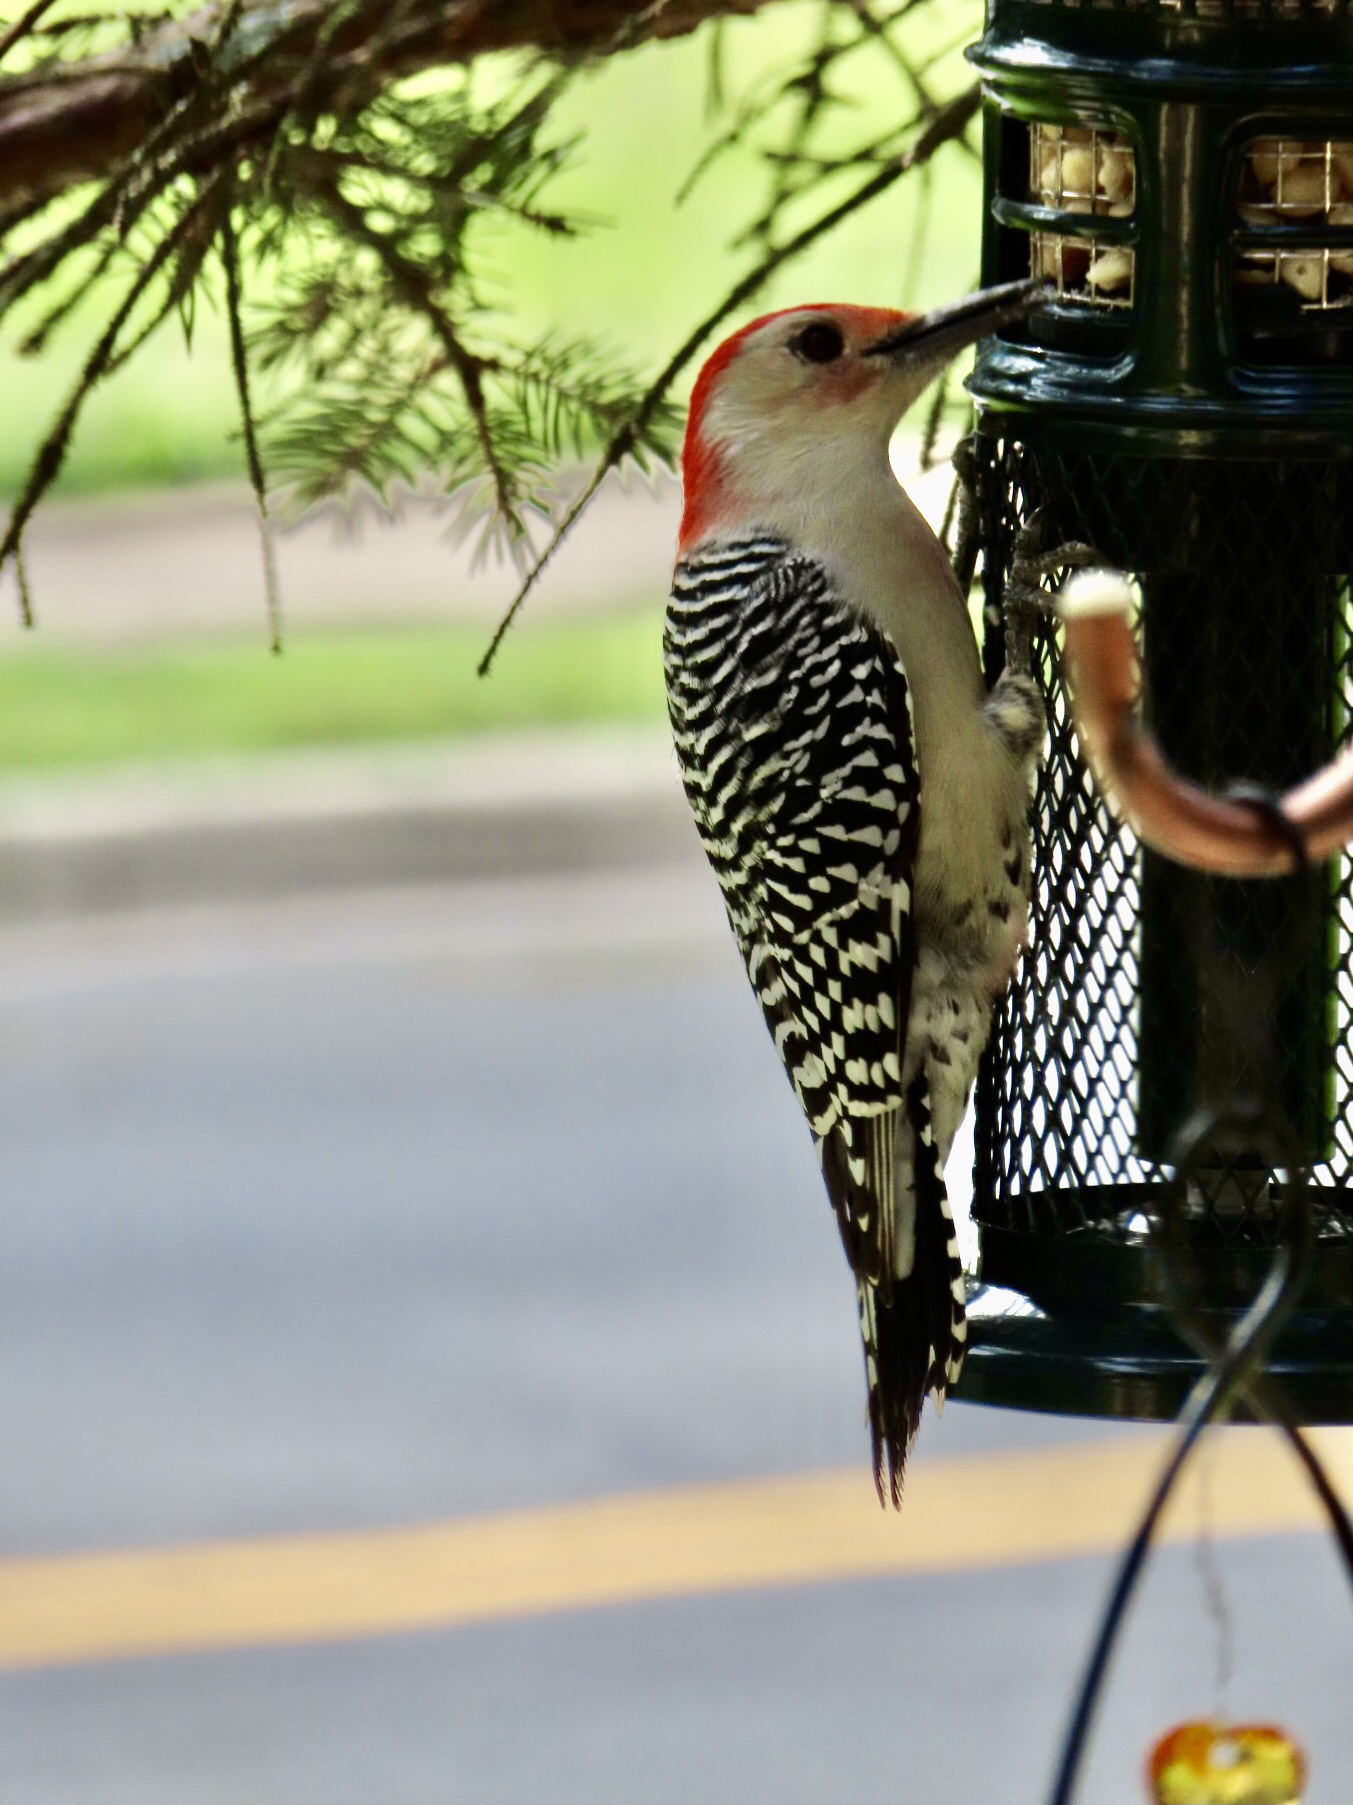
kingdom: Animalia
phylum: Chordata
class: Aves
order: Piciformes
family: Picidae
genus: Melanerpes
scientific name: Melanerpes carolinus
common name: Red-bellied woodpecker
